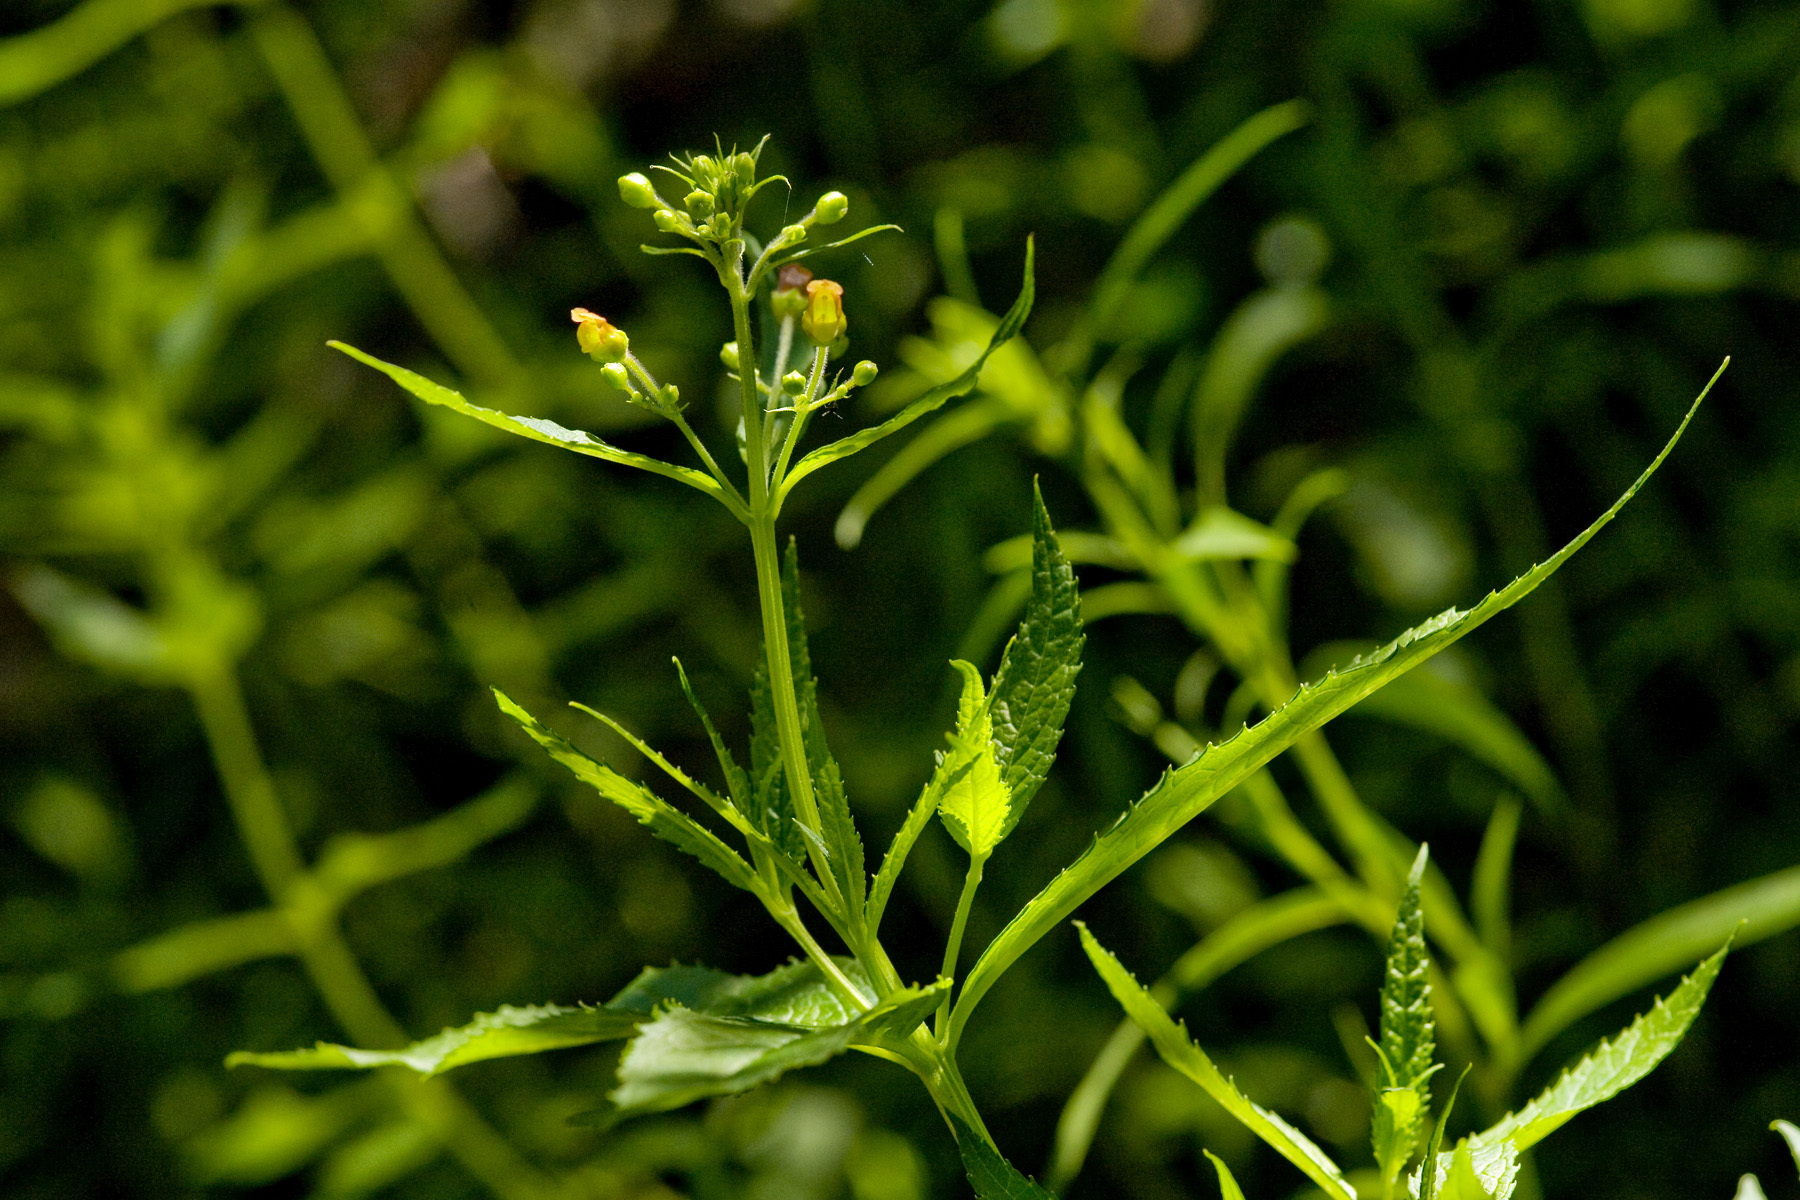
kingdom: Plantae
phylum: Tracheophyta
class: Magnoliopsida
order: Lamiales
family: Scrophulariaceae
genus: Scrophularia
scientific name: Scrophularia montana
